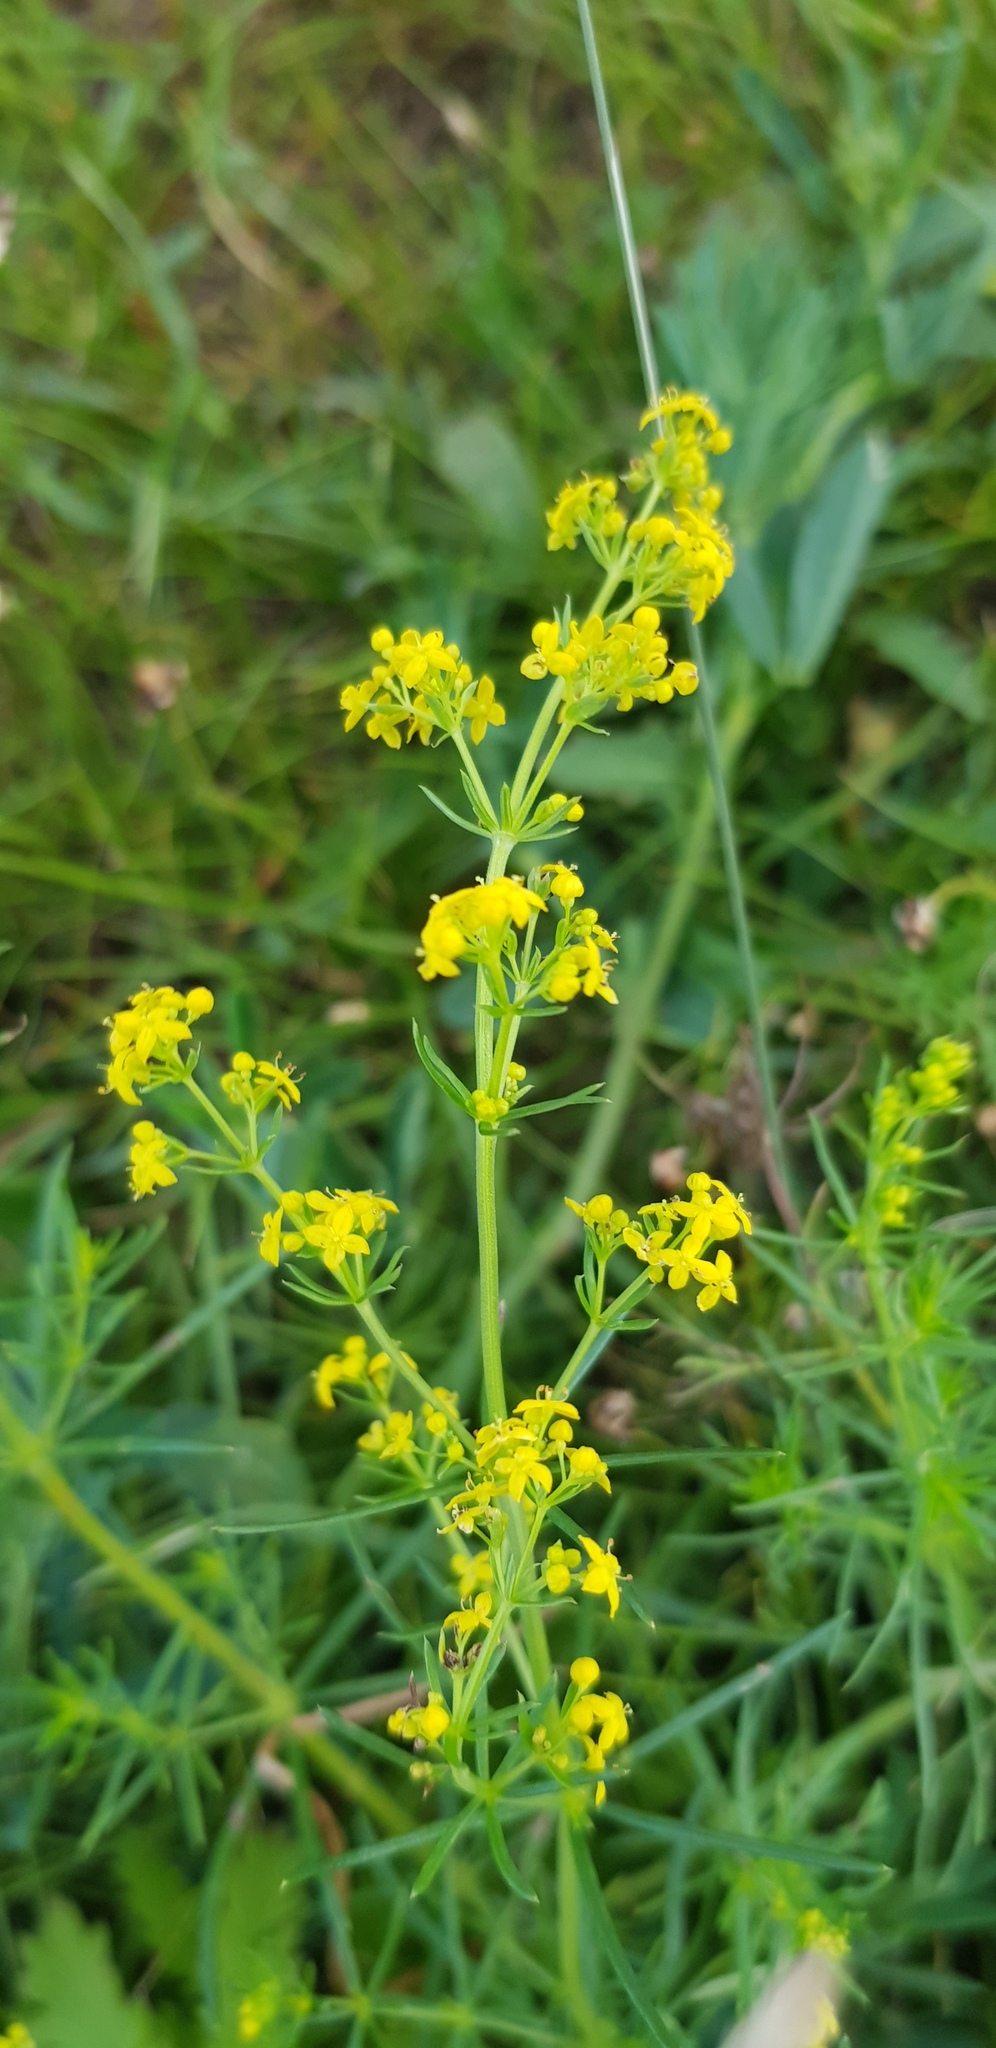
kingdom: Plantae
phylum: Tracheophyta
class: Magnoliopsida
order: Gentianales
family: Rubiaceae
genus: Galium
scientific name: Galium verum
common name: Lady's bedstraw
